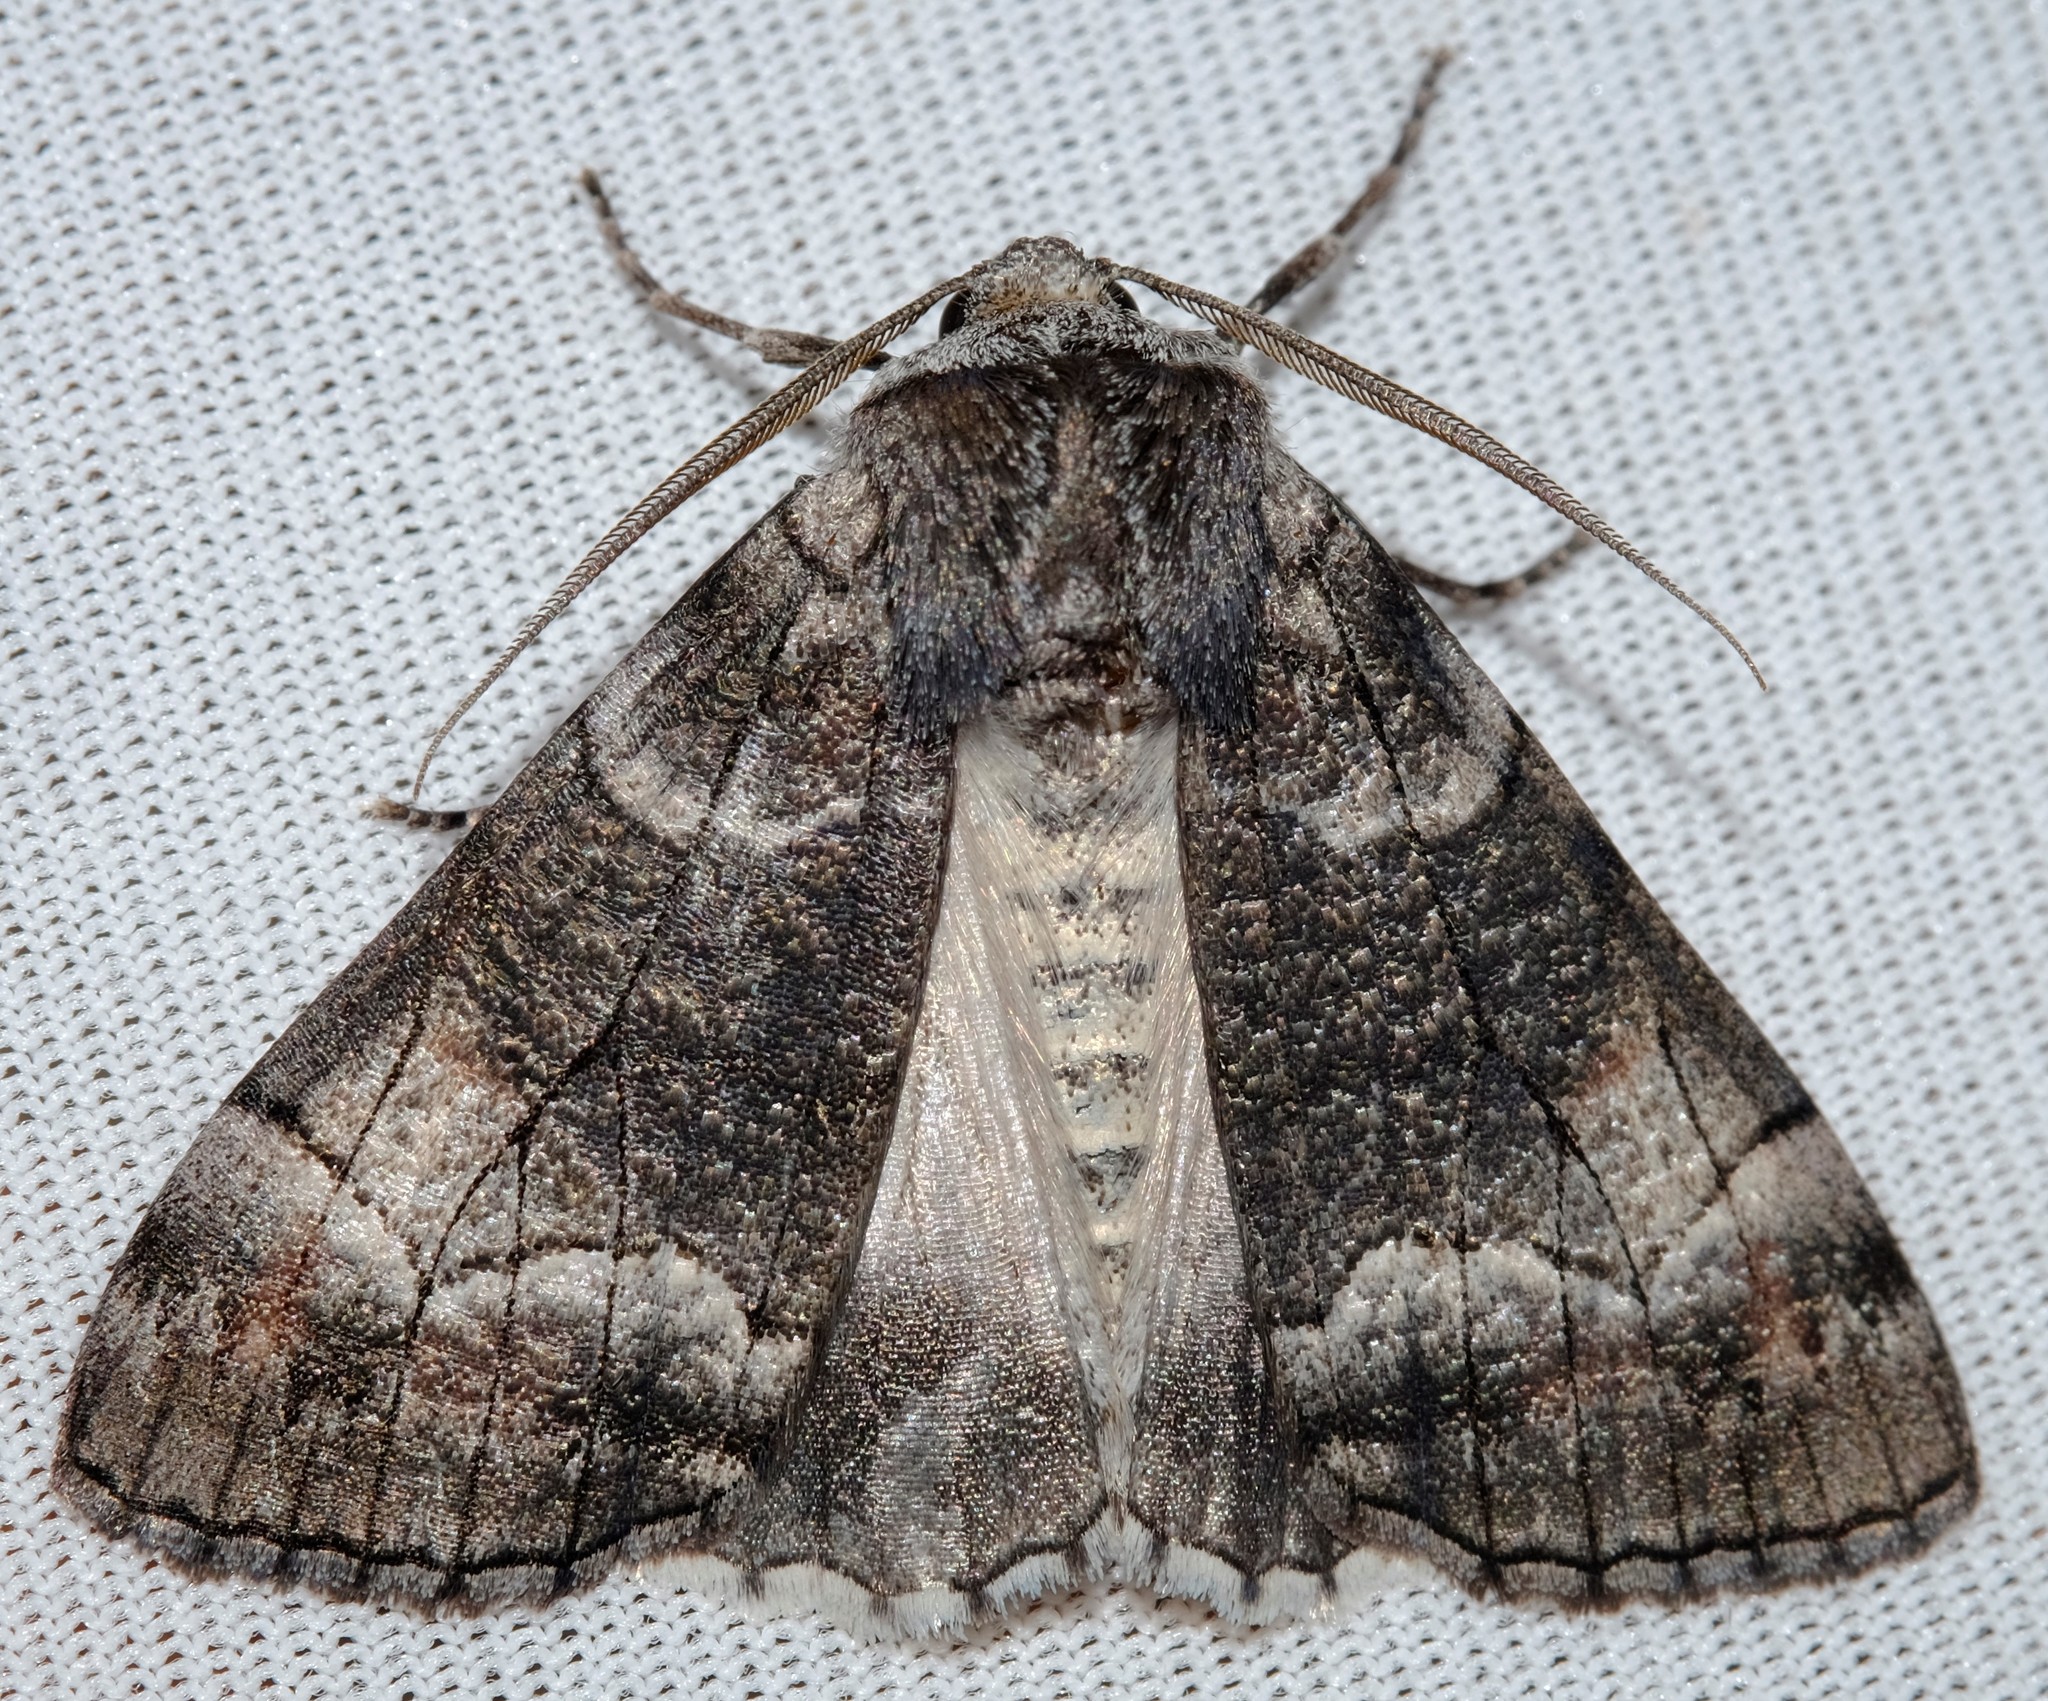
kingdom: Animalia
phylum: Arthropoda
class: Insecta
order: Lepidoptera
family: Geometridae
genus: Stibaroma
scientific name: Stibaroma
